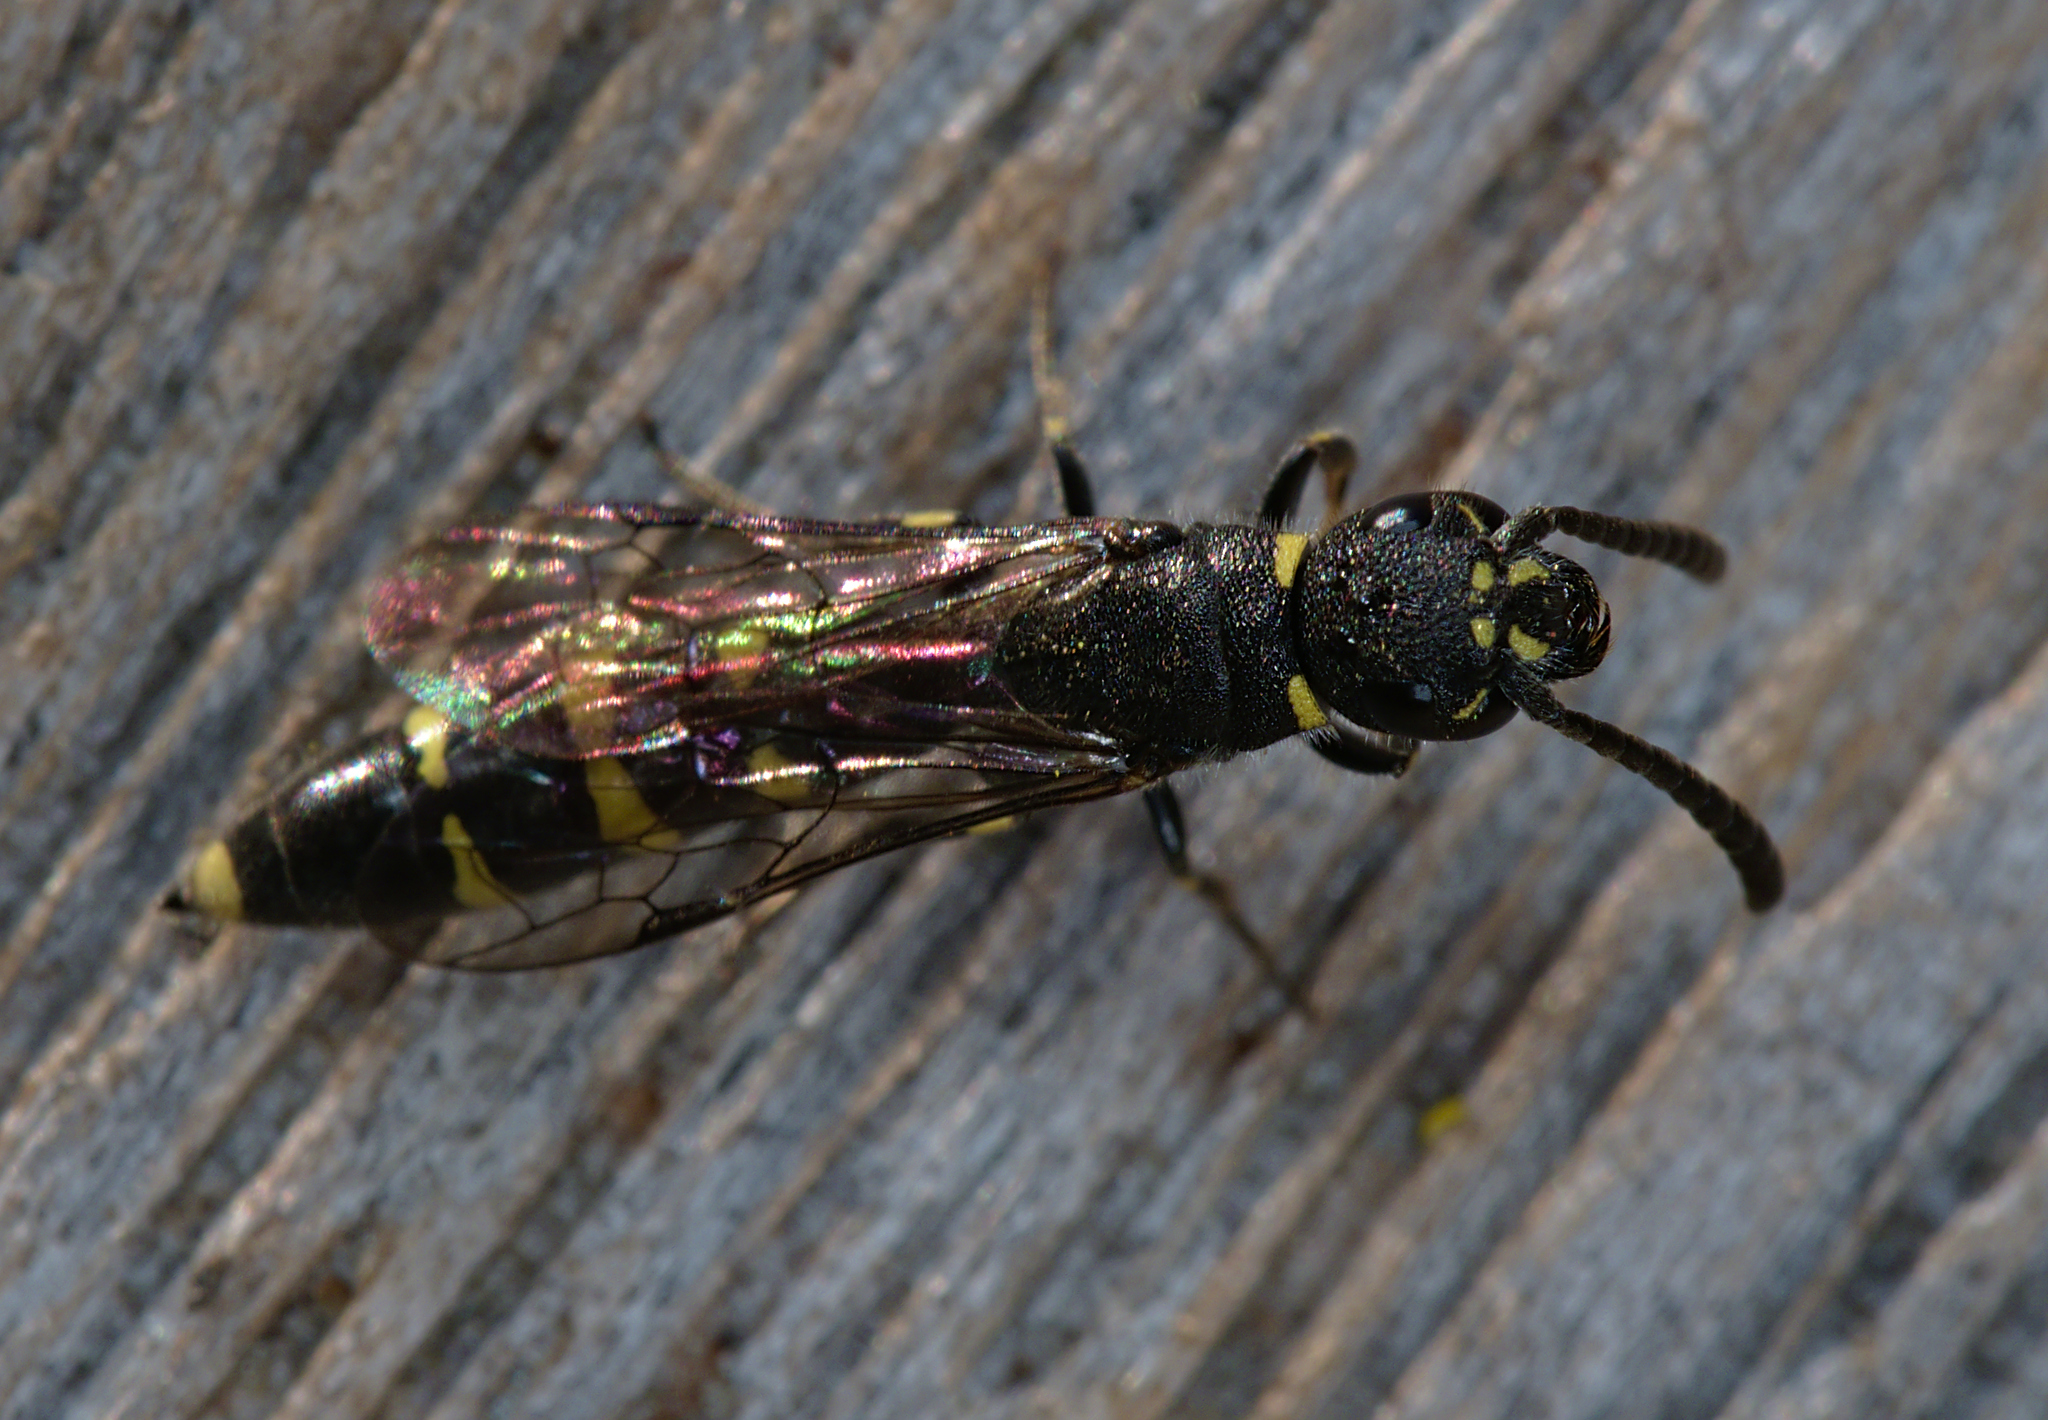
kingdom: Animalia
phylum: Arthropoda
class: Insecta
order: Hymenoptera
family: Sapygidae
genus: Monosapyga
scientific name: Monosapyga clavicornis
